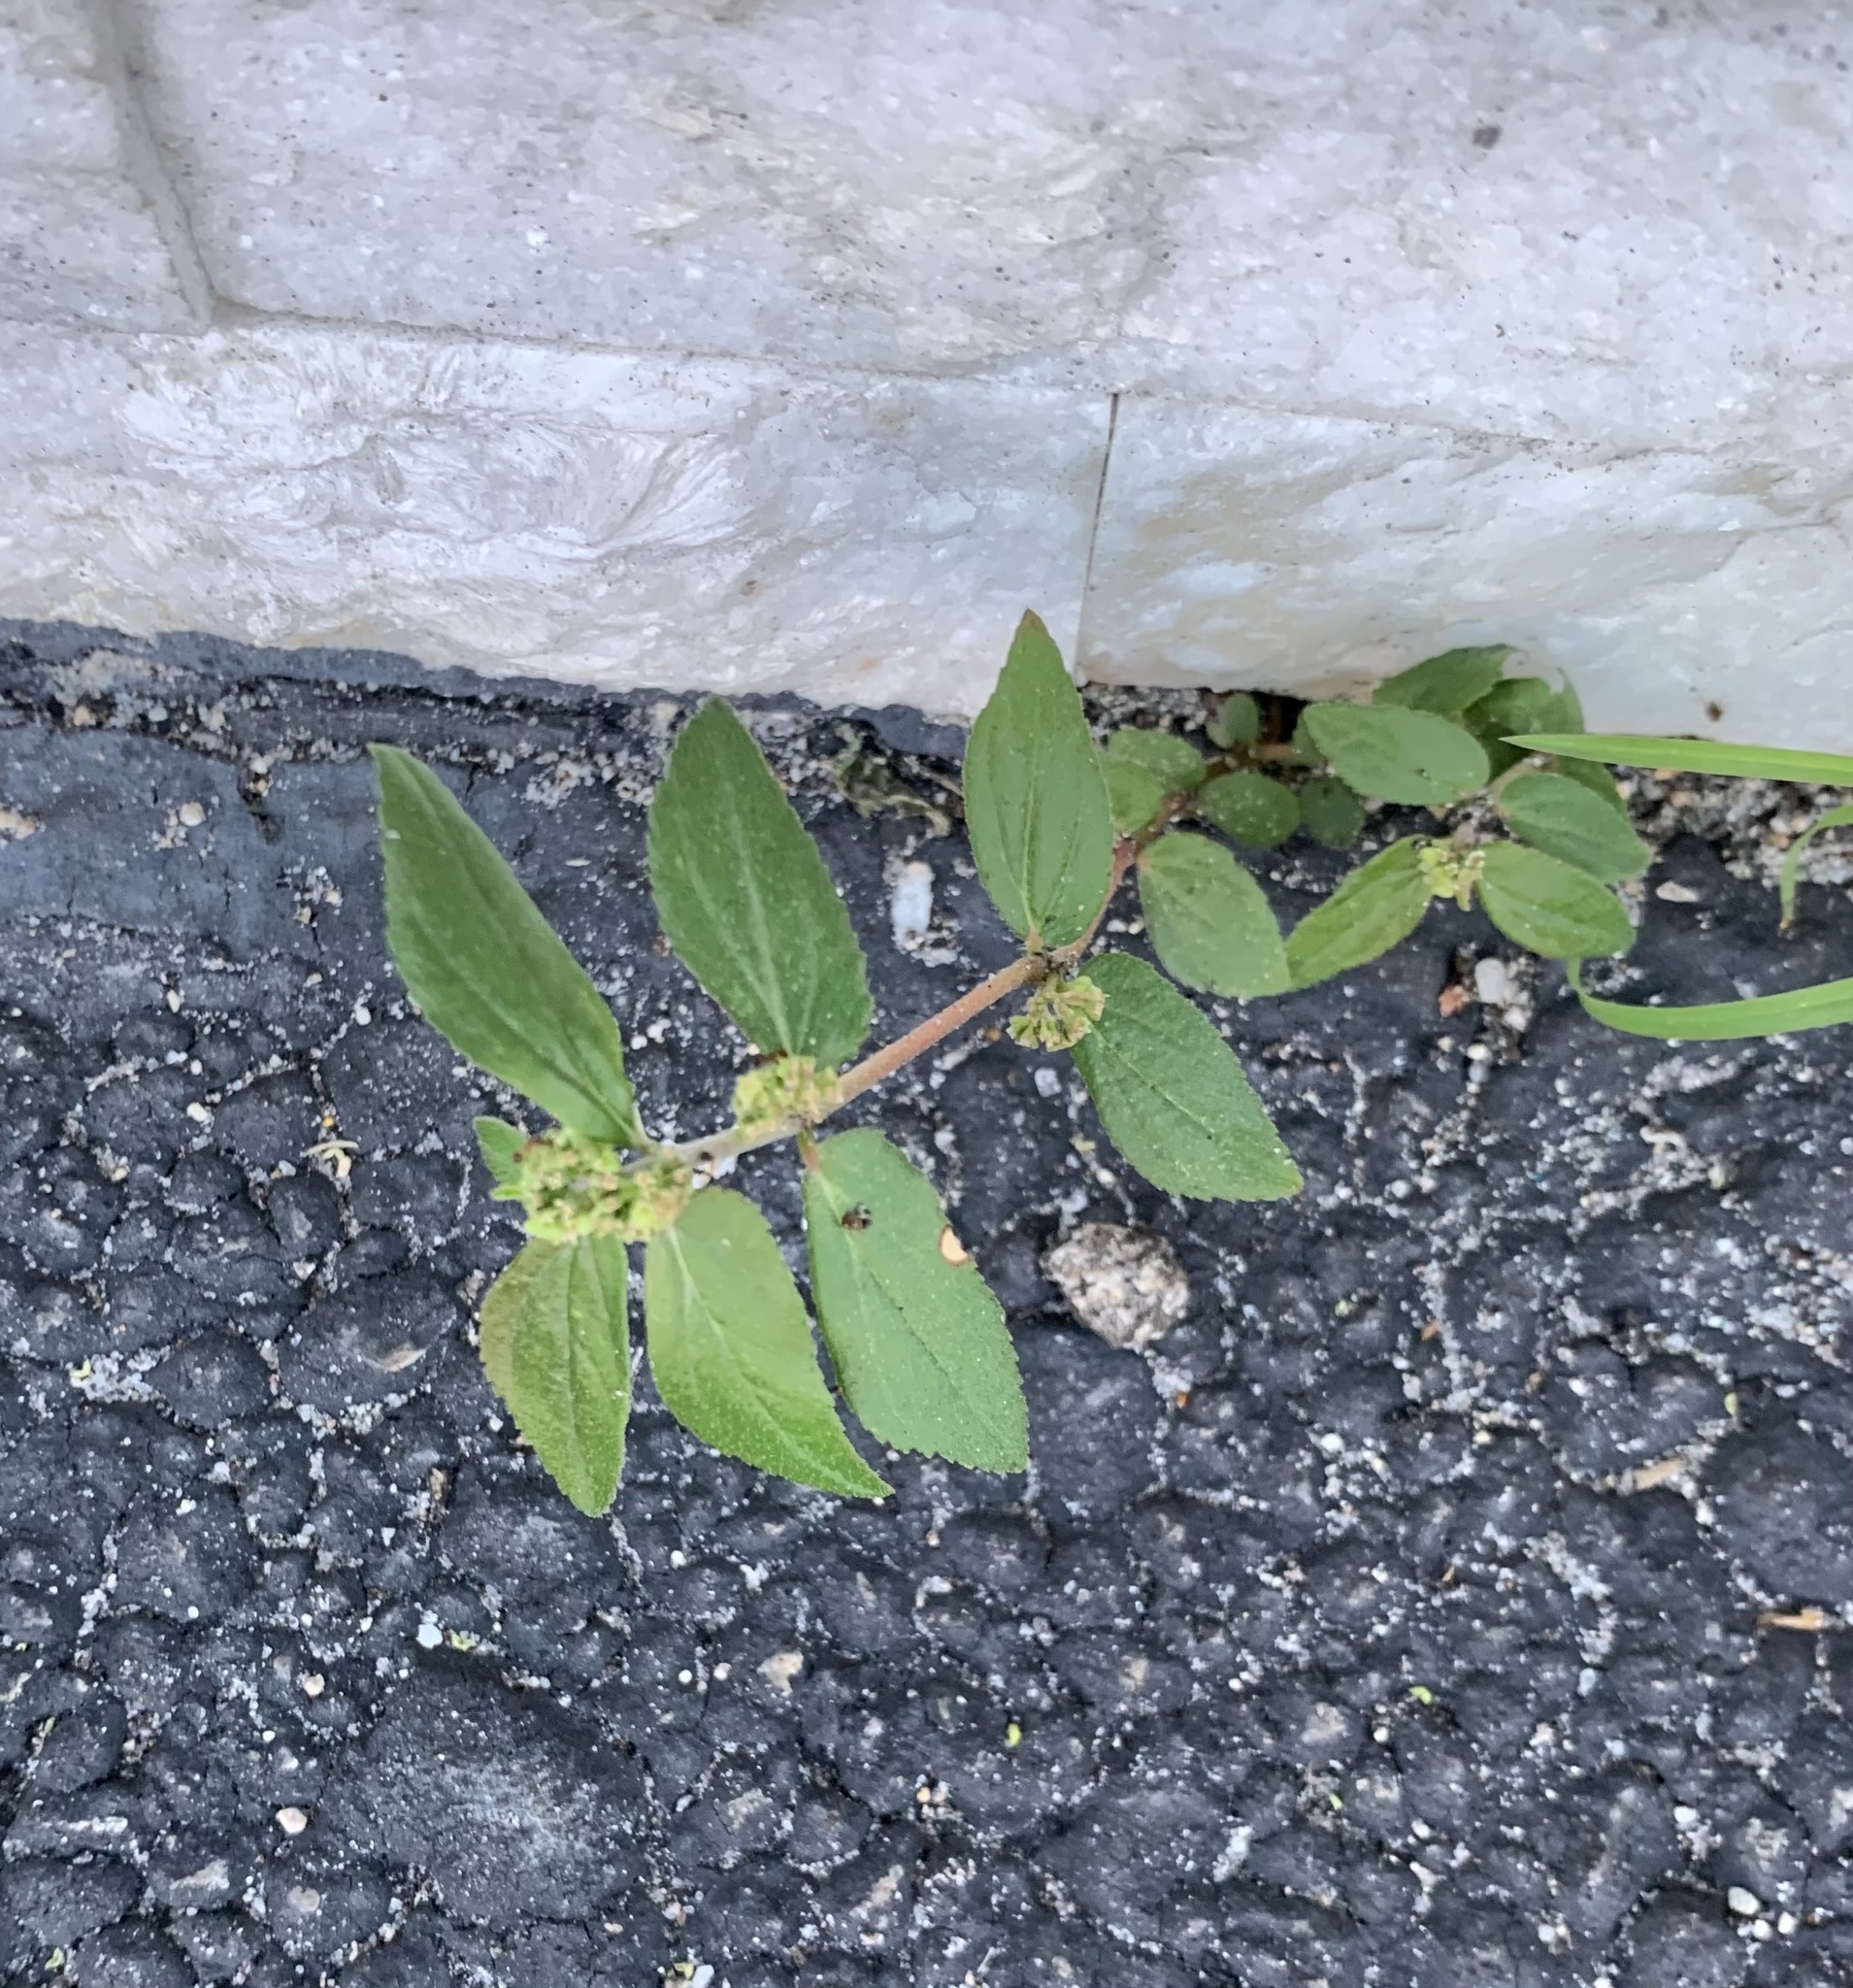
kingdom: Plantae
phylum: Tracheophyta
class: Magnoliopsida
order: Malpighiales
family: Euphorbiaceae
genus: Euphorbia
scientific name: Euphorbia hirta
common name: Pillpod sandmat
